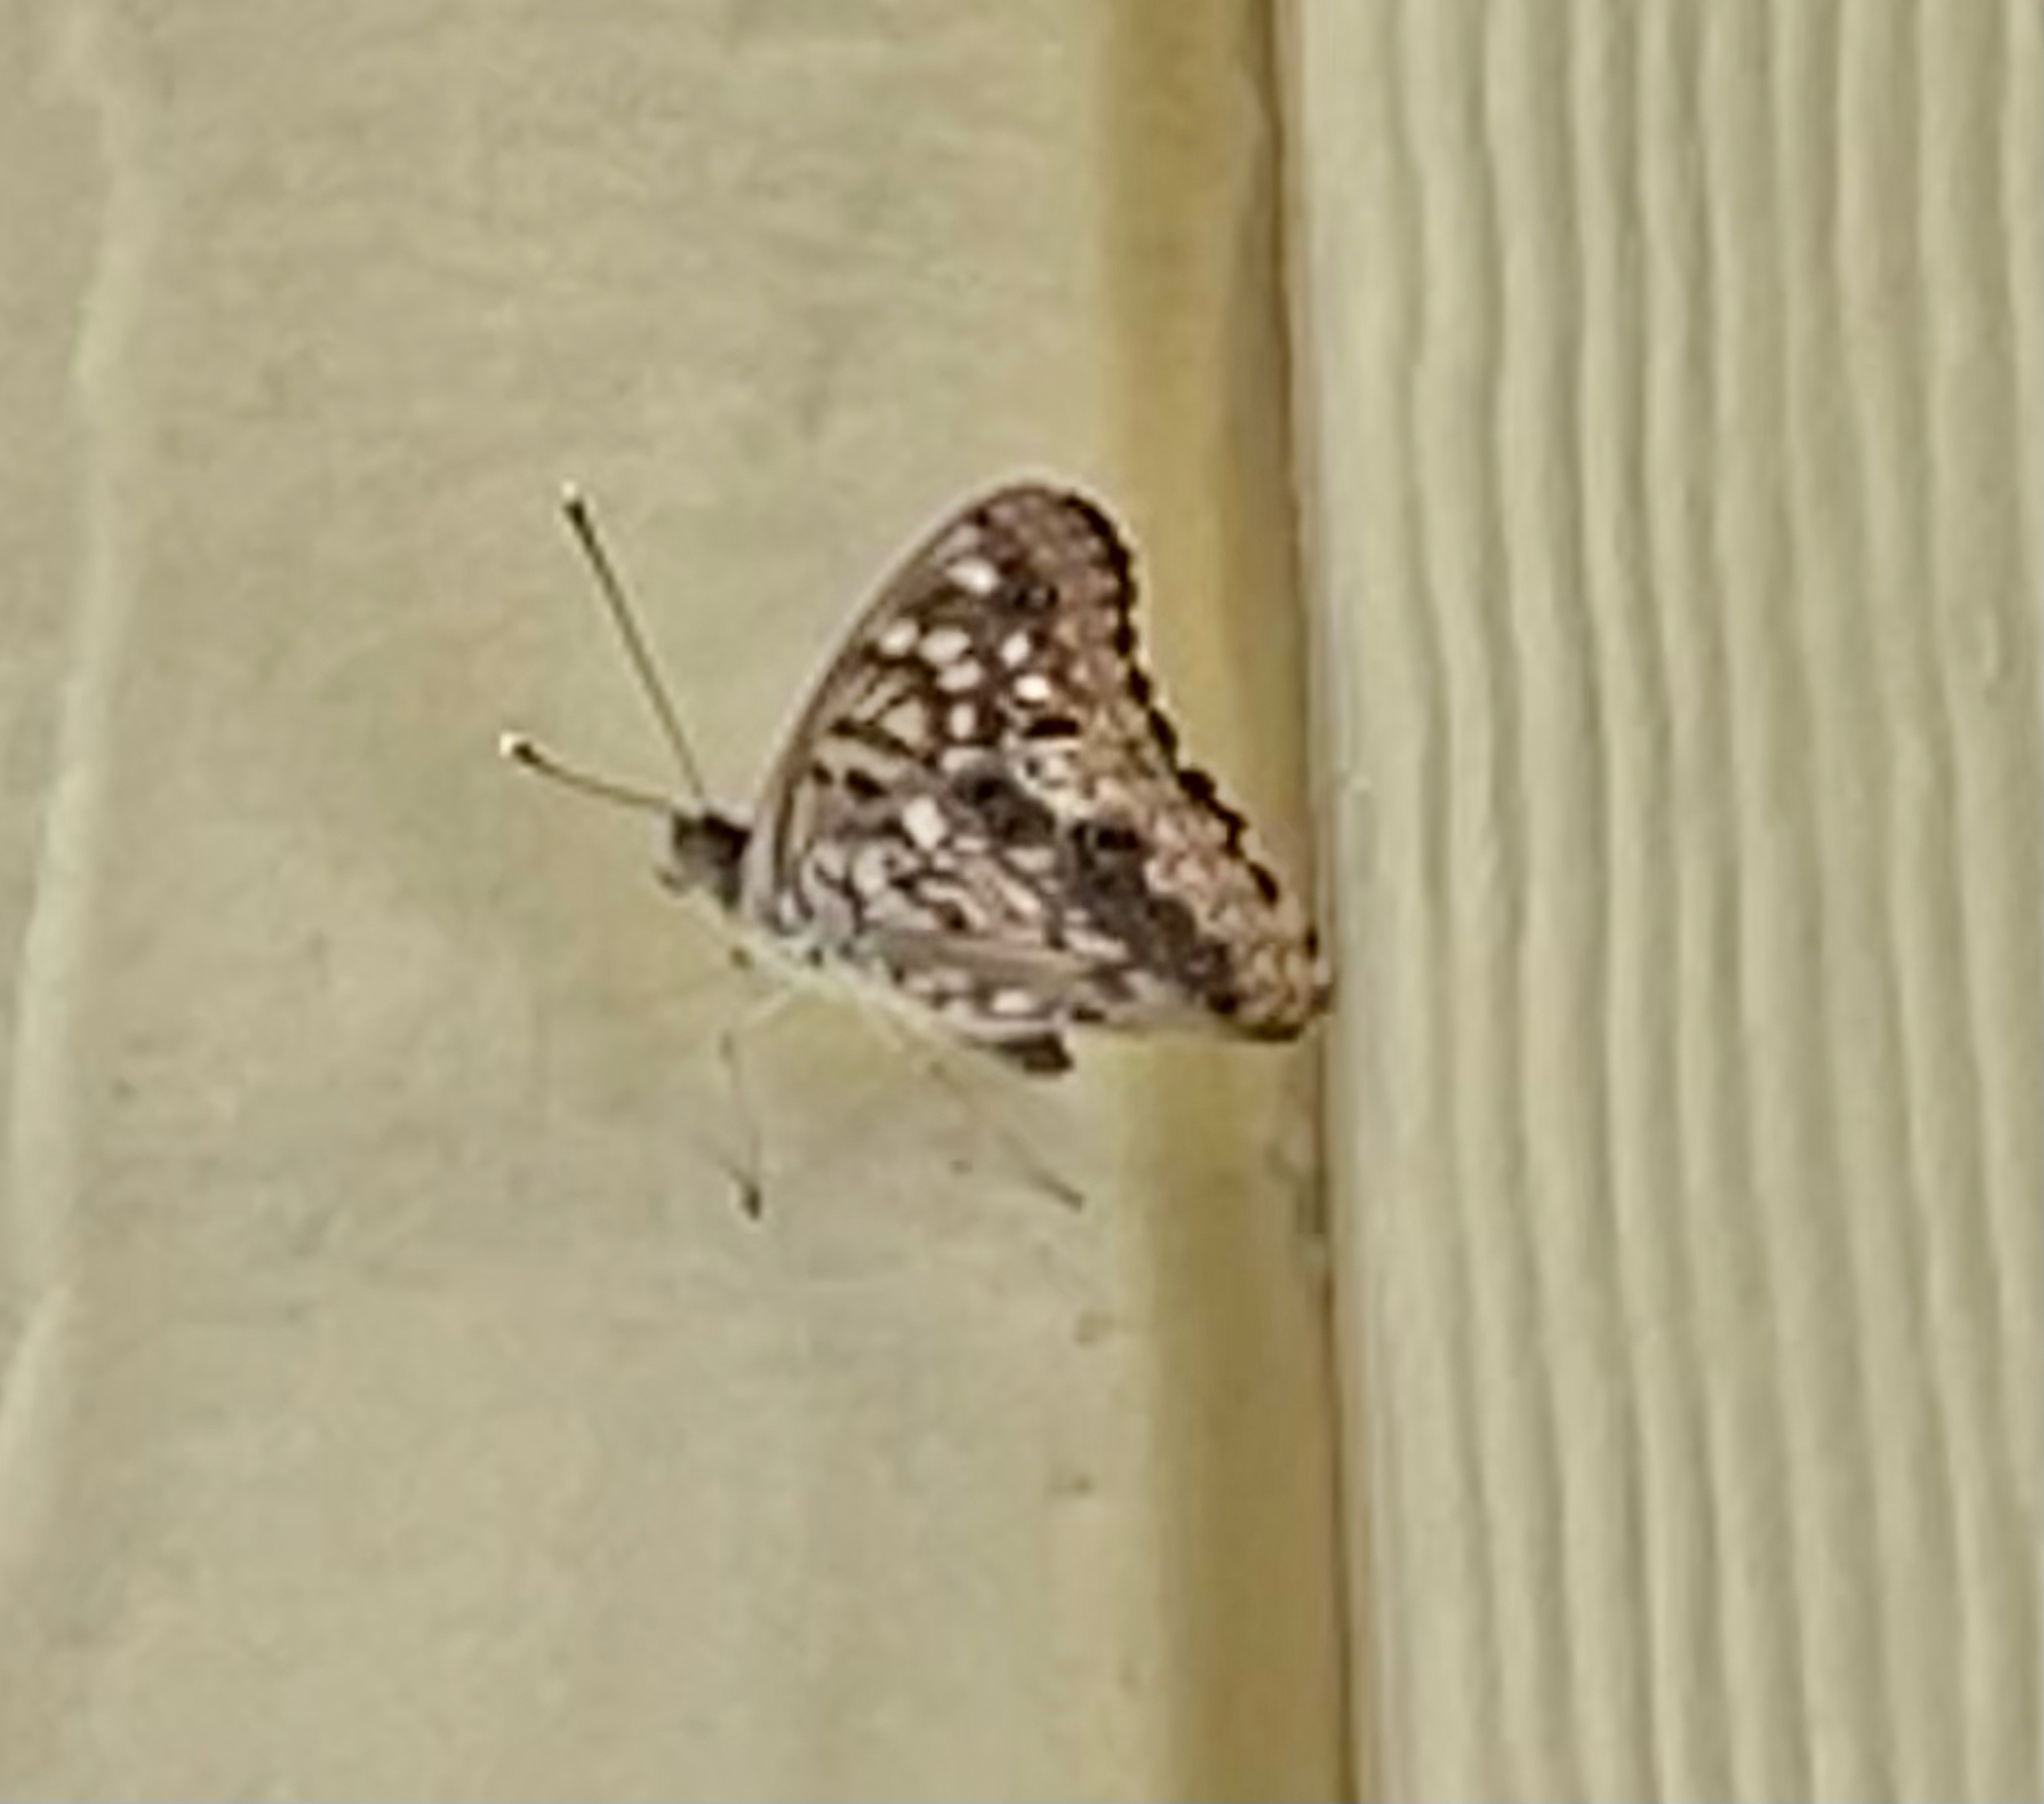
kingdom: Animalia
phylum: Arthropoda
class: Insecta
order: Lepidoptera
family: Nymphalidae
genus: Asterocampa
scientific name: Asterocampa celtis
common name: Hackberry emperor
